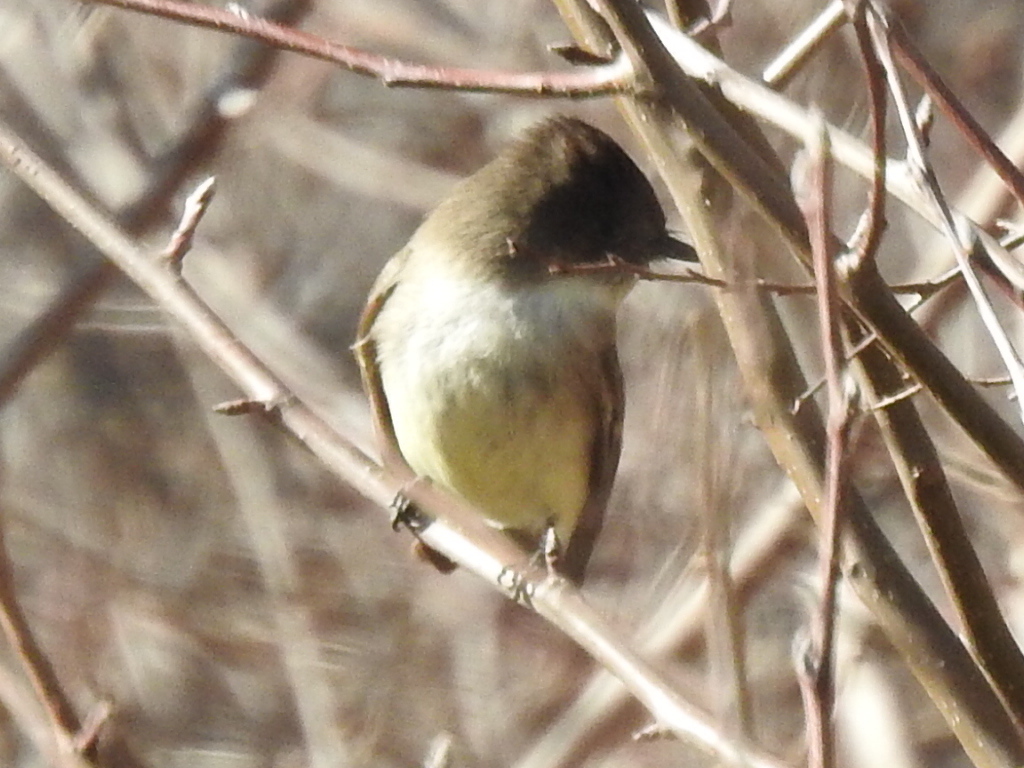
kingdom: Animalia
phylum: Chordata
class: Aves
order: Passeriformes
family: Tyrannidae
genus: Sayornis
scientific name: Sayornis phoebe
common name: Eastern phoebe
